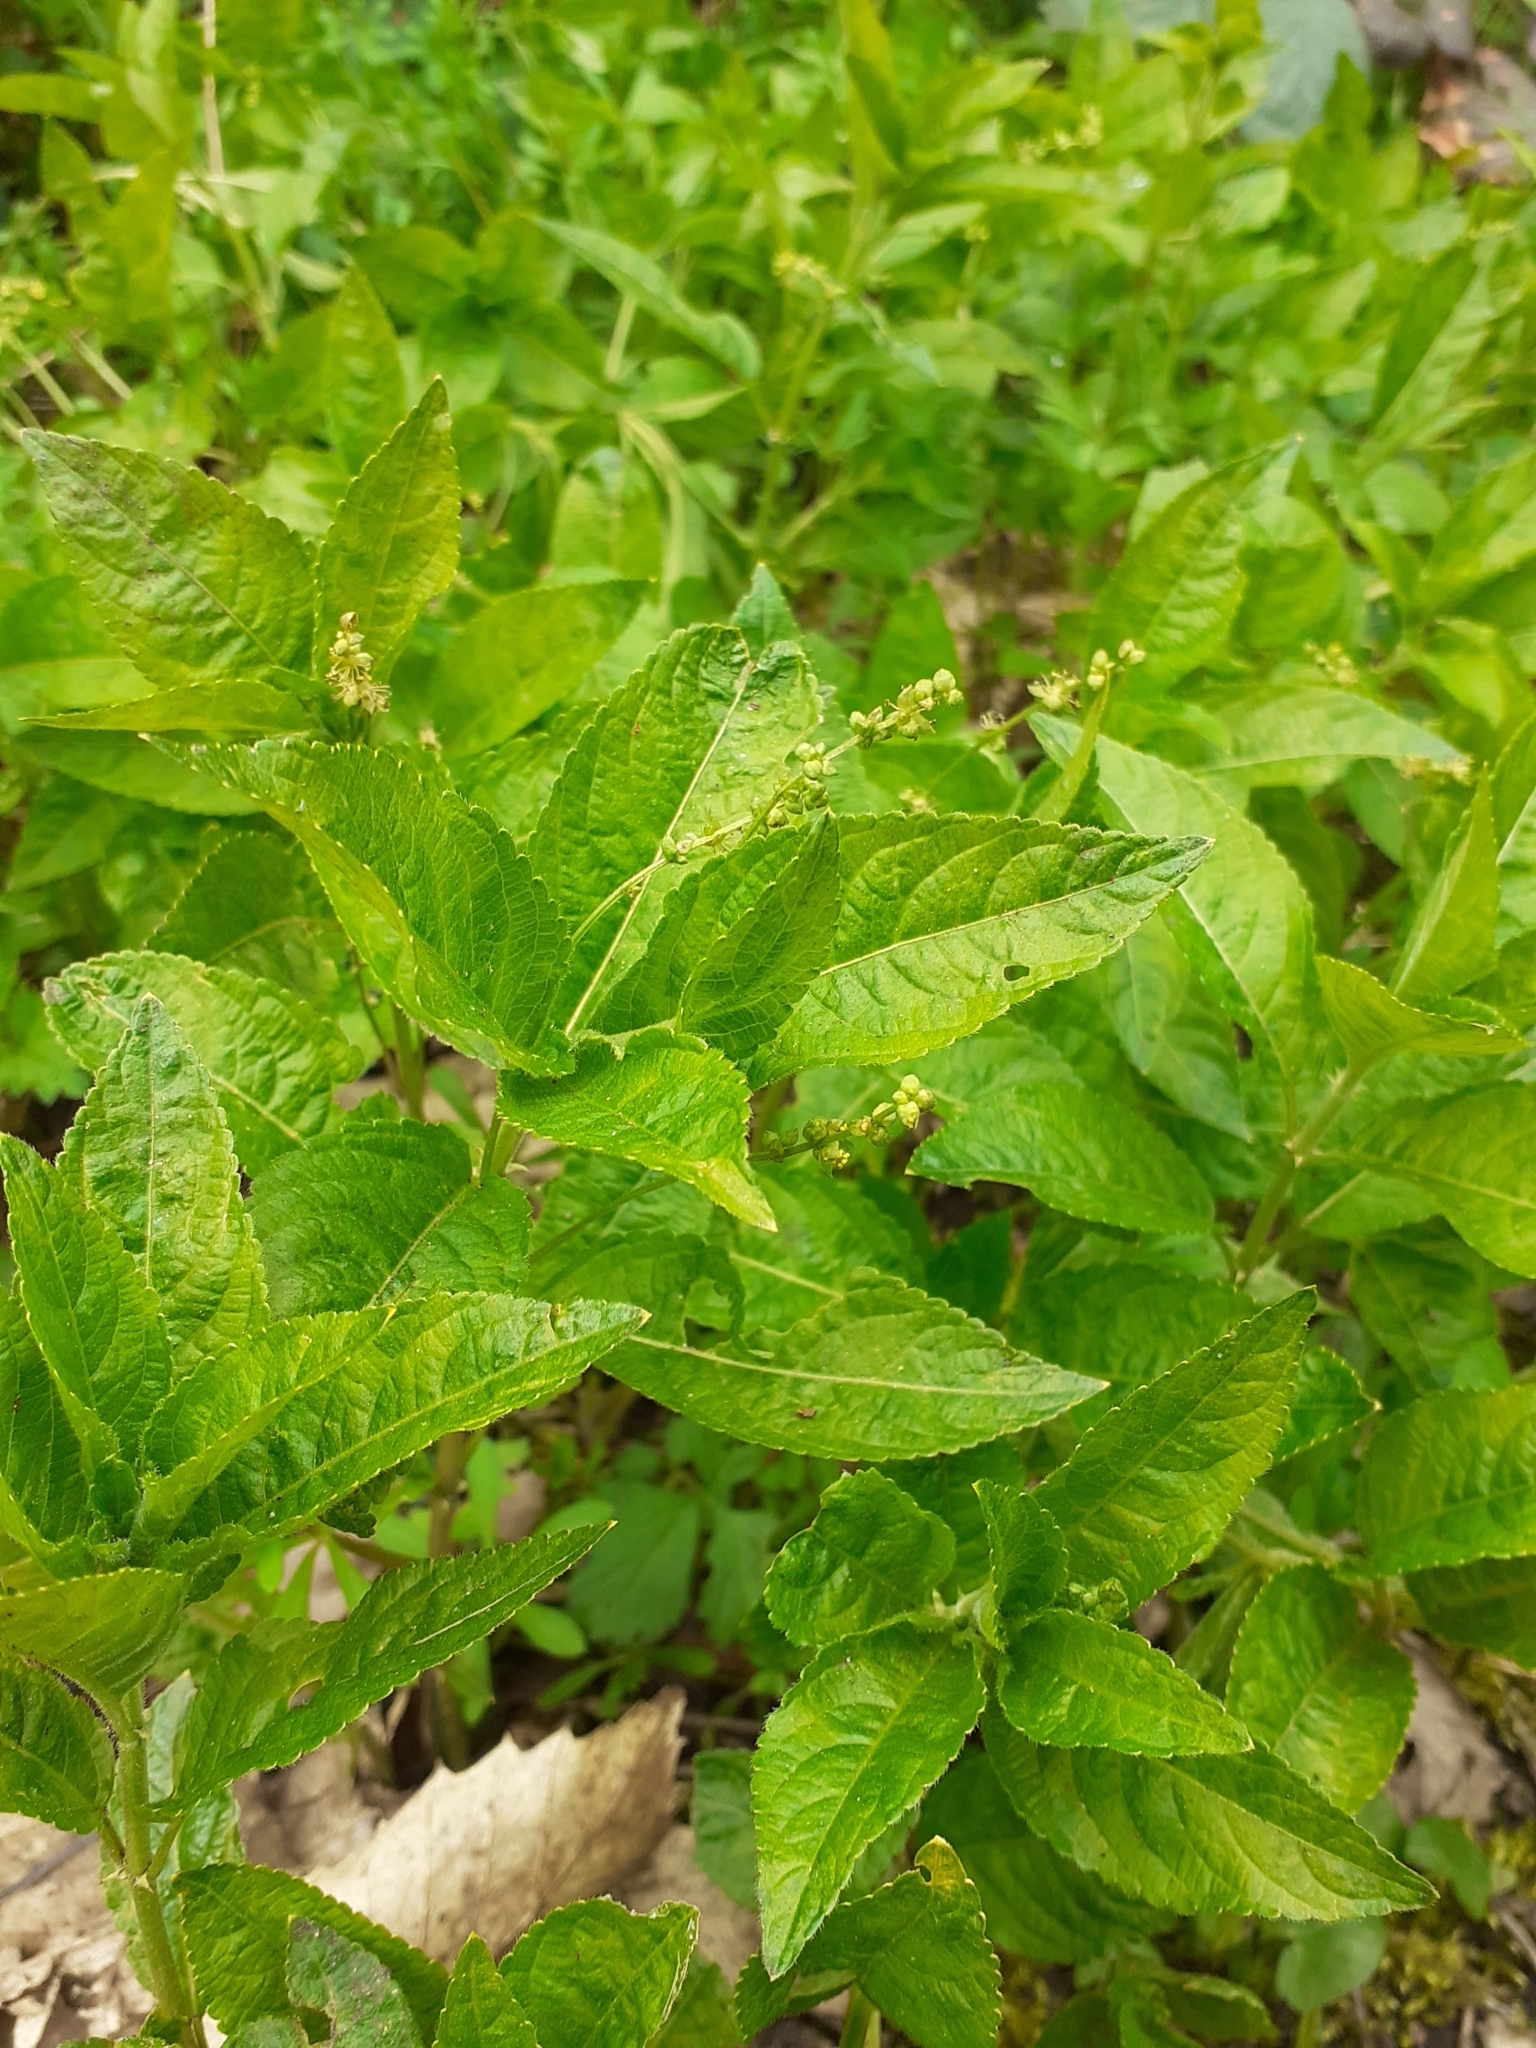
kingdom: Plantae
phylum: Tracheophyta
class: Magnoliopsida
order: Malpighiales
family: Euphorbiaceae
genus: Mercurialis
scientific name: Mercurialis perennis
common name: Dog mercury
